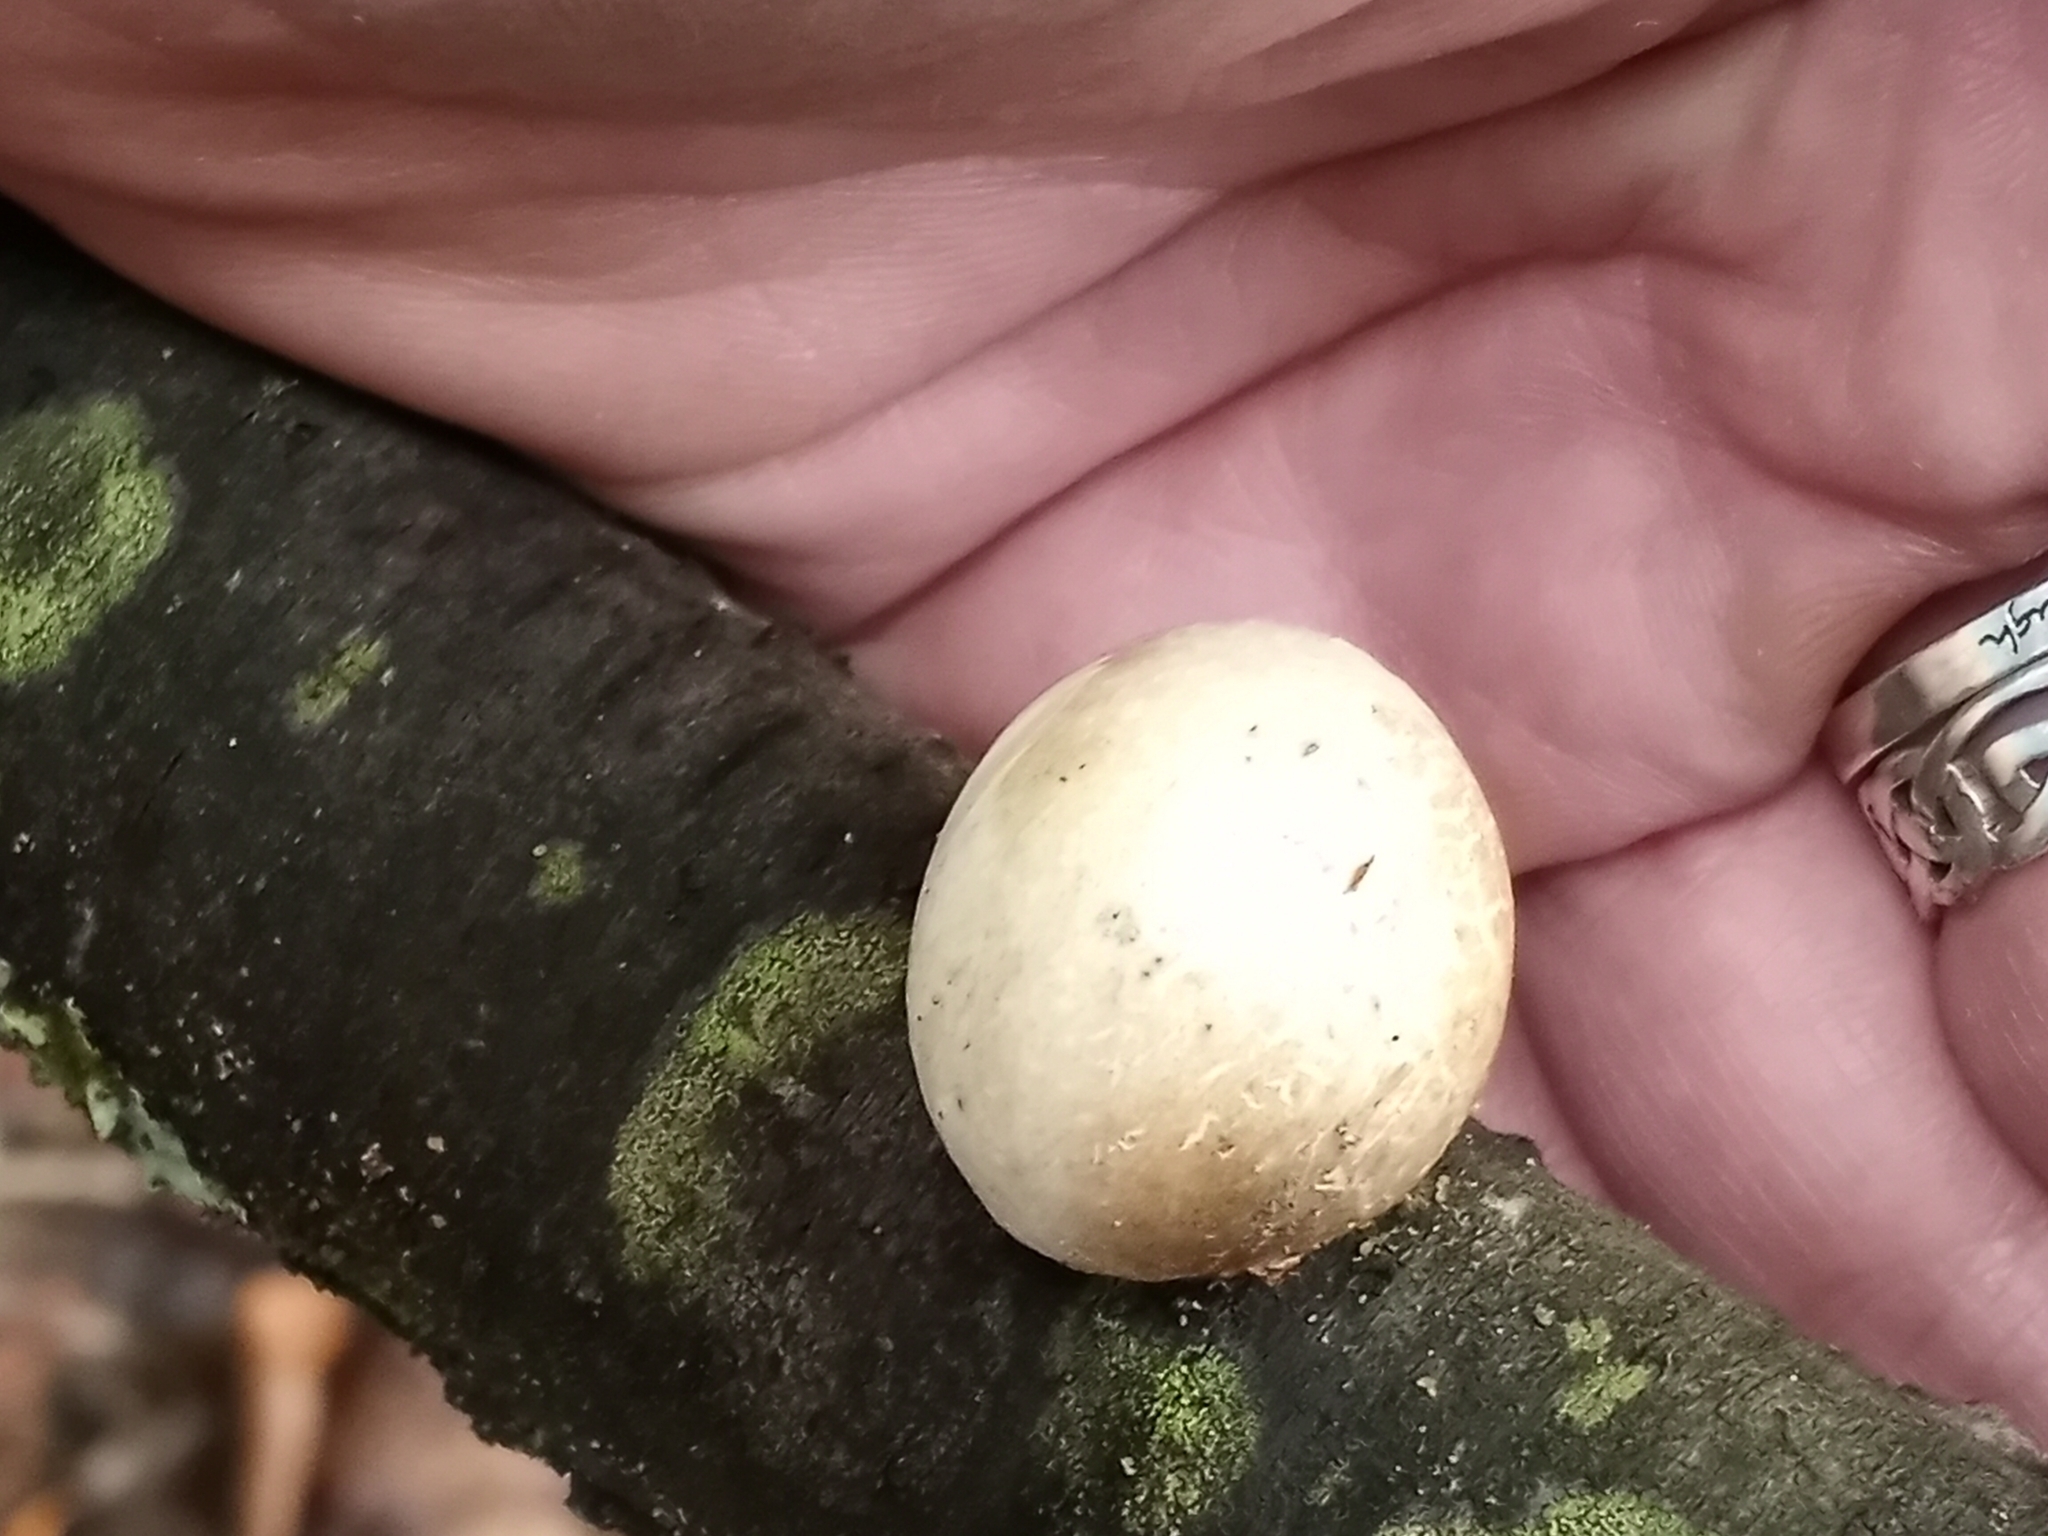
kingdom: Fungi
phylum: Basidiomycota
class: Agaricomycetes
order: Polyporales
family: Fomitopsidaceae
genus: Fomitopsis
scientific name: Fomitopsis betulina
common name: Birch polypore
